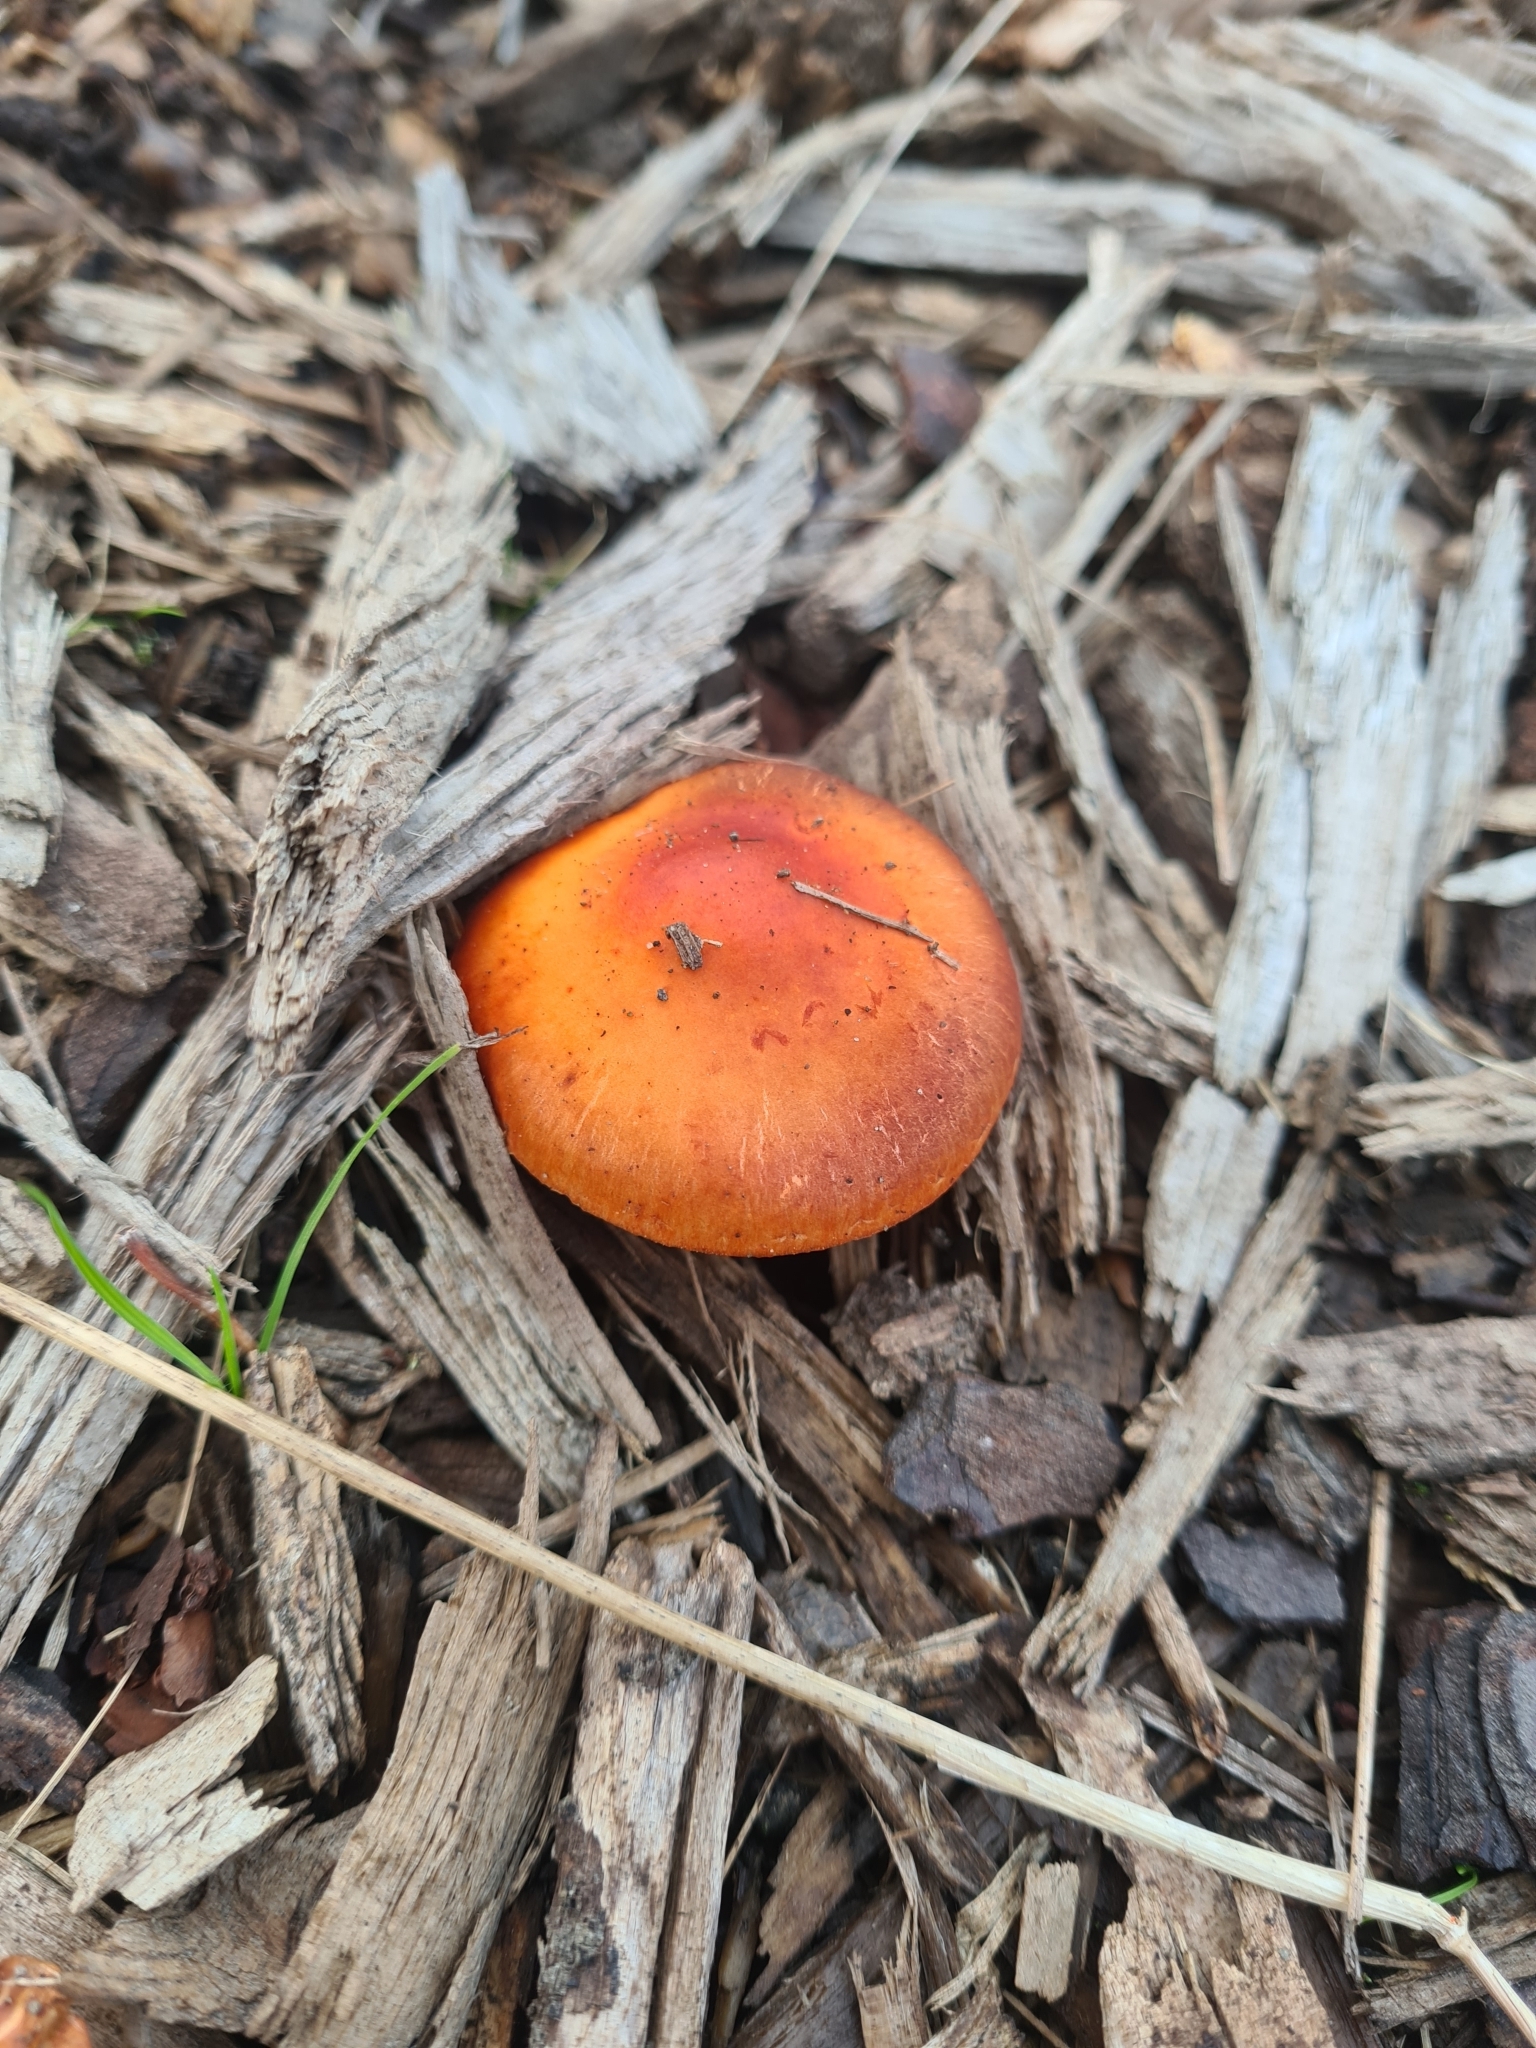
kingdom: Fungi
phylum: Basidiomycota
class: Agaricomycetes
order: Agaricales
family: Strophariaceae
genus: Leratiomyces
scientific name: Leratiomyces ceres
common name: Redlead roundhead
